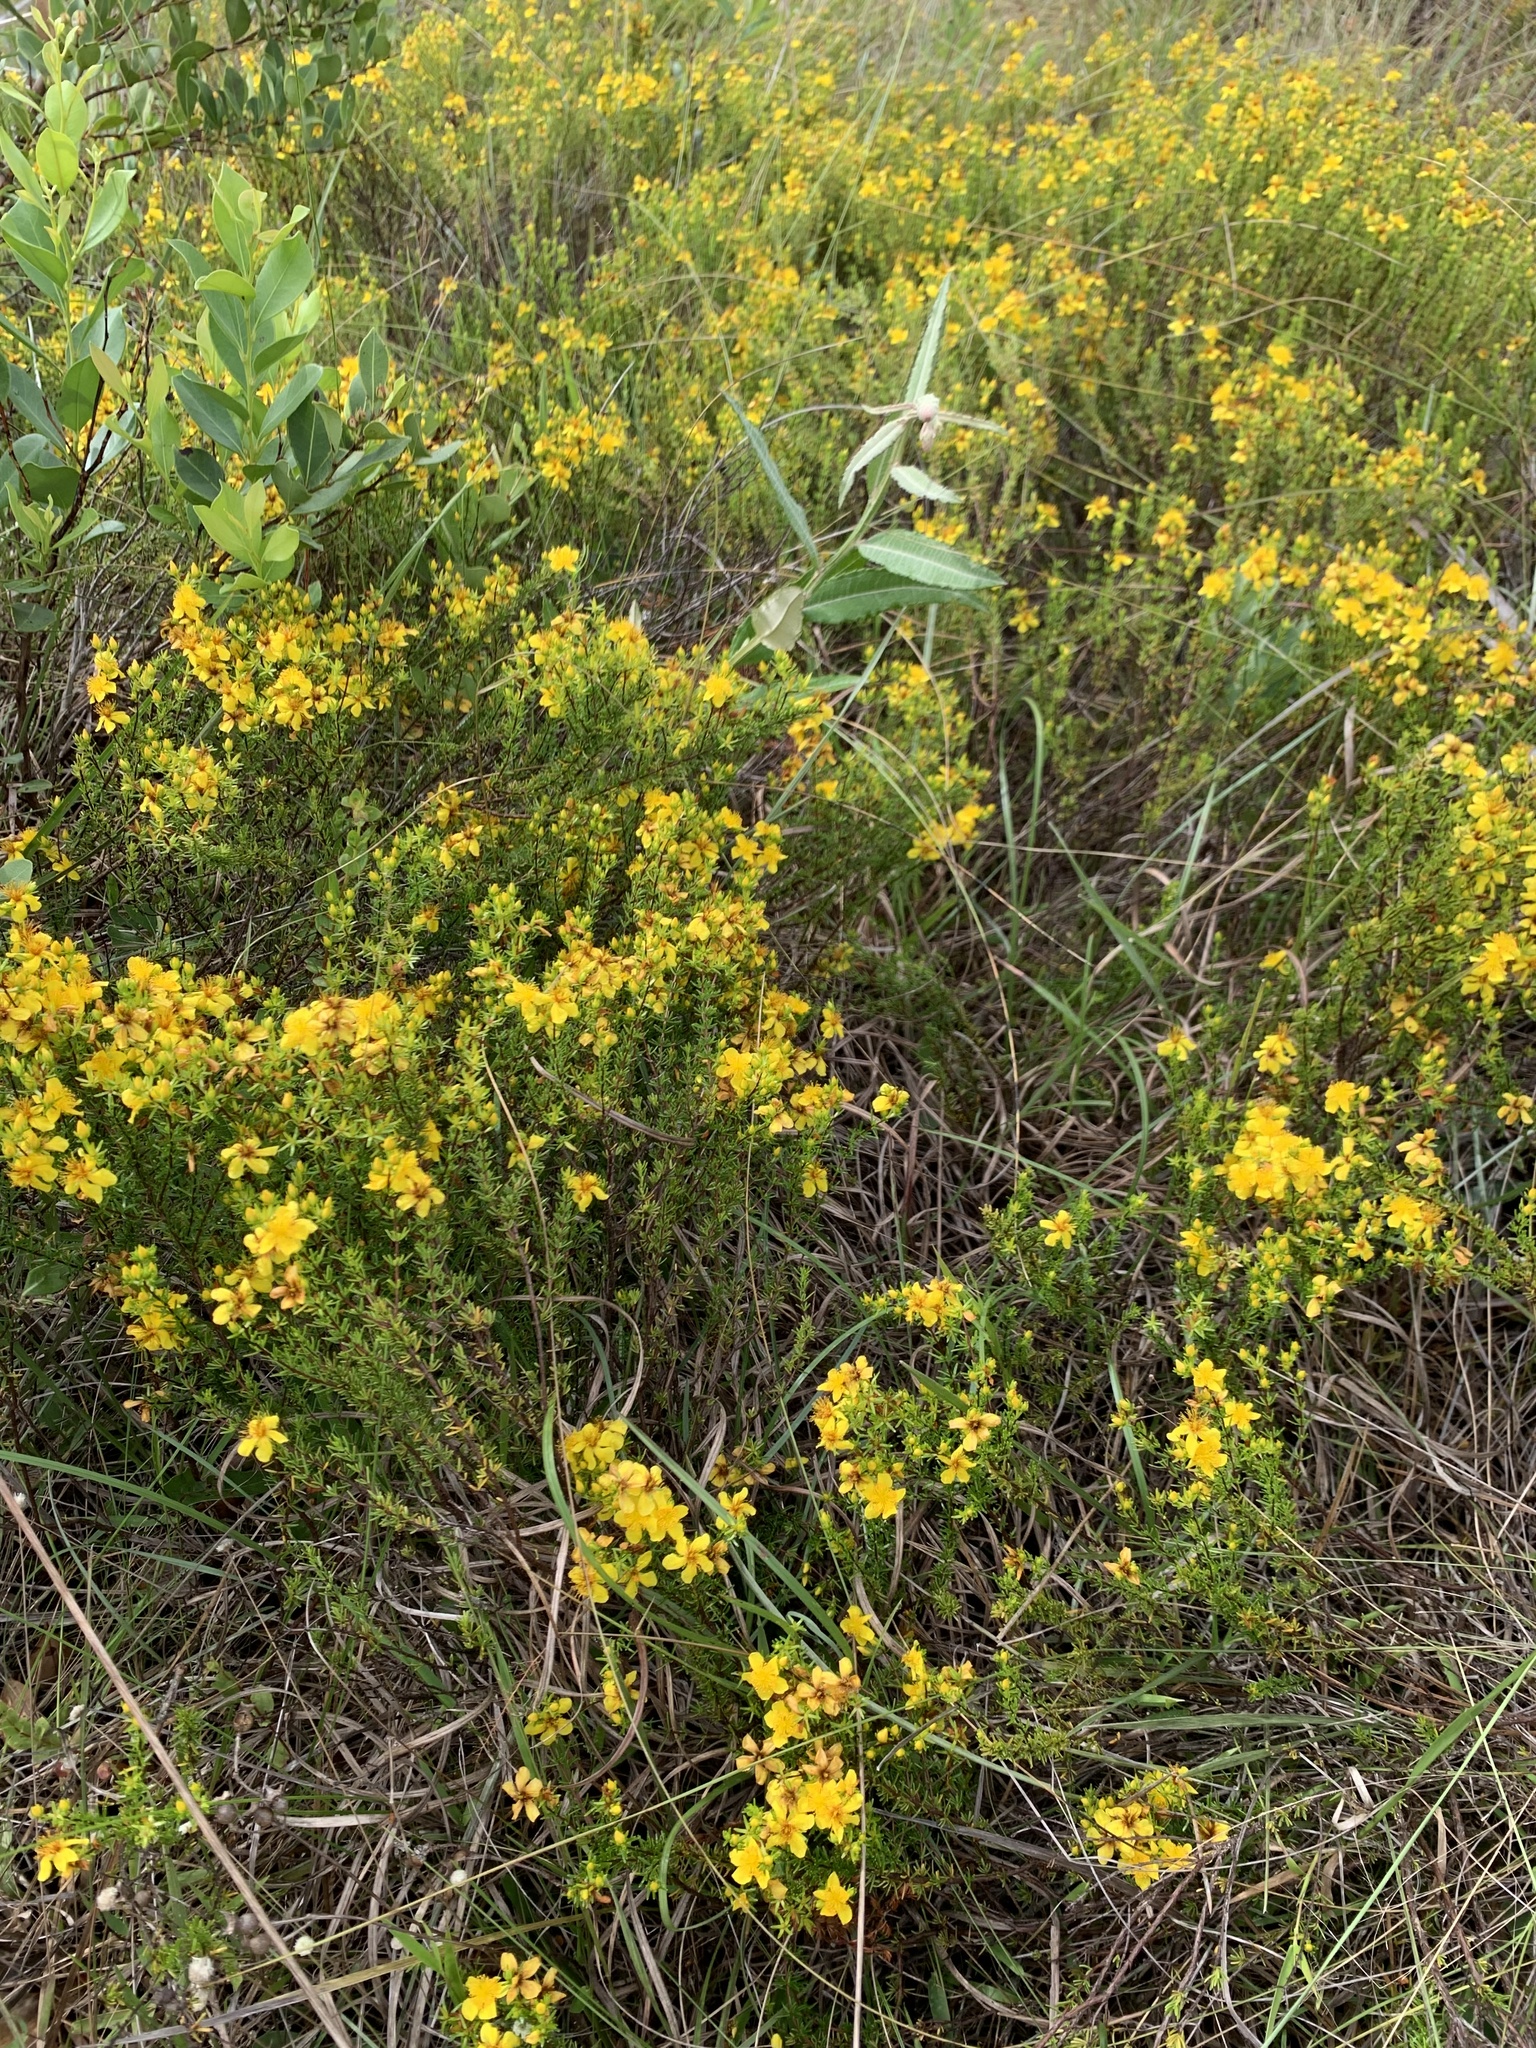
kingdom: Plantae
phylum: Tracheophyta
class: Magnoliopsida
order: Malpighiales
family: Hypericaceae
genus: Hypericum
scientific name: Hypericum tenuifolium
